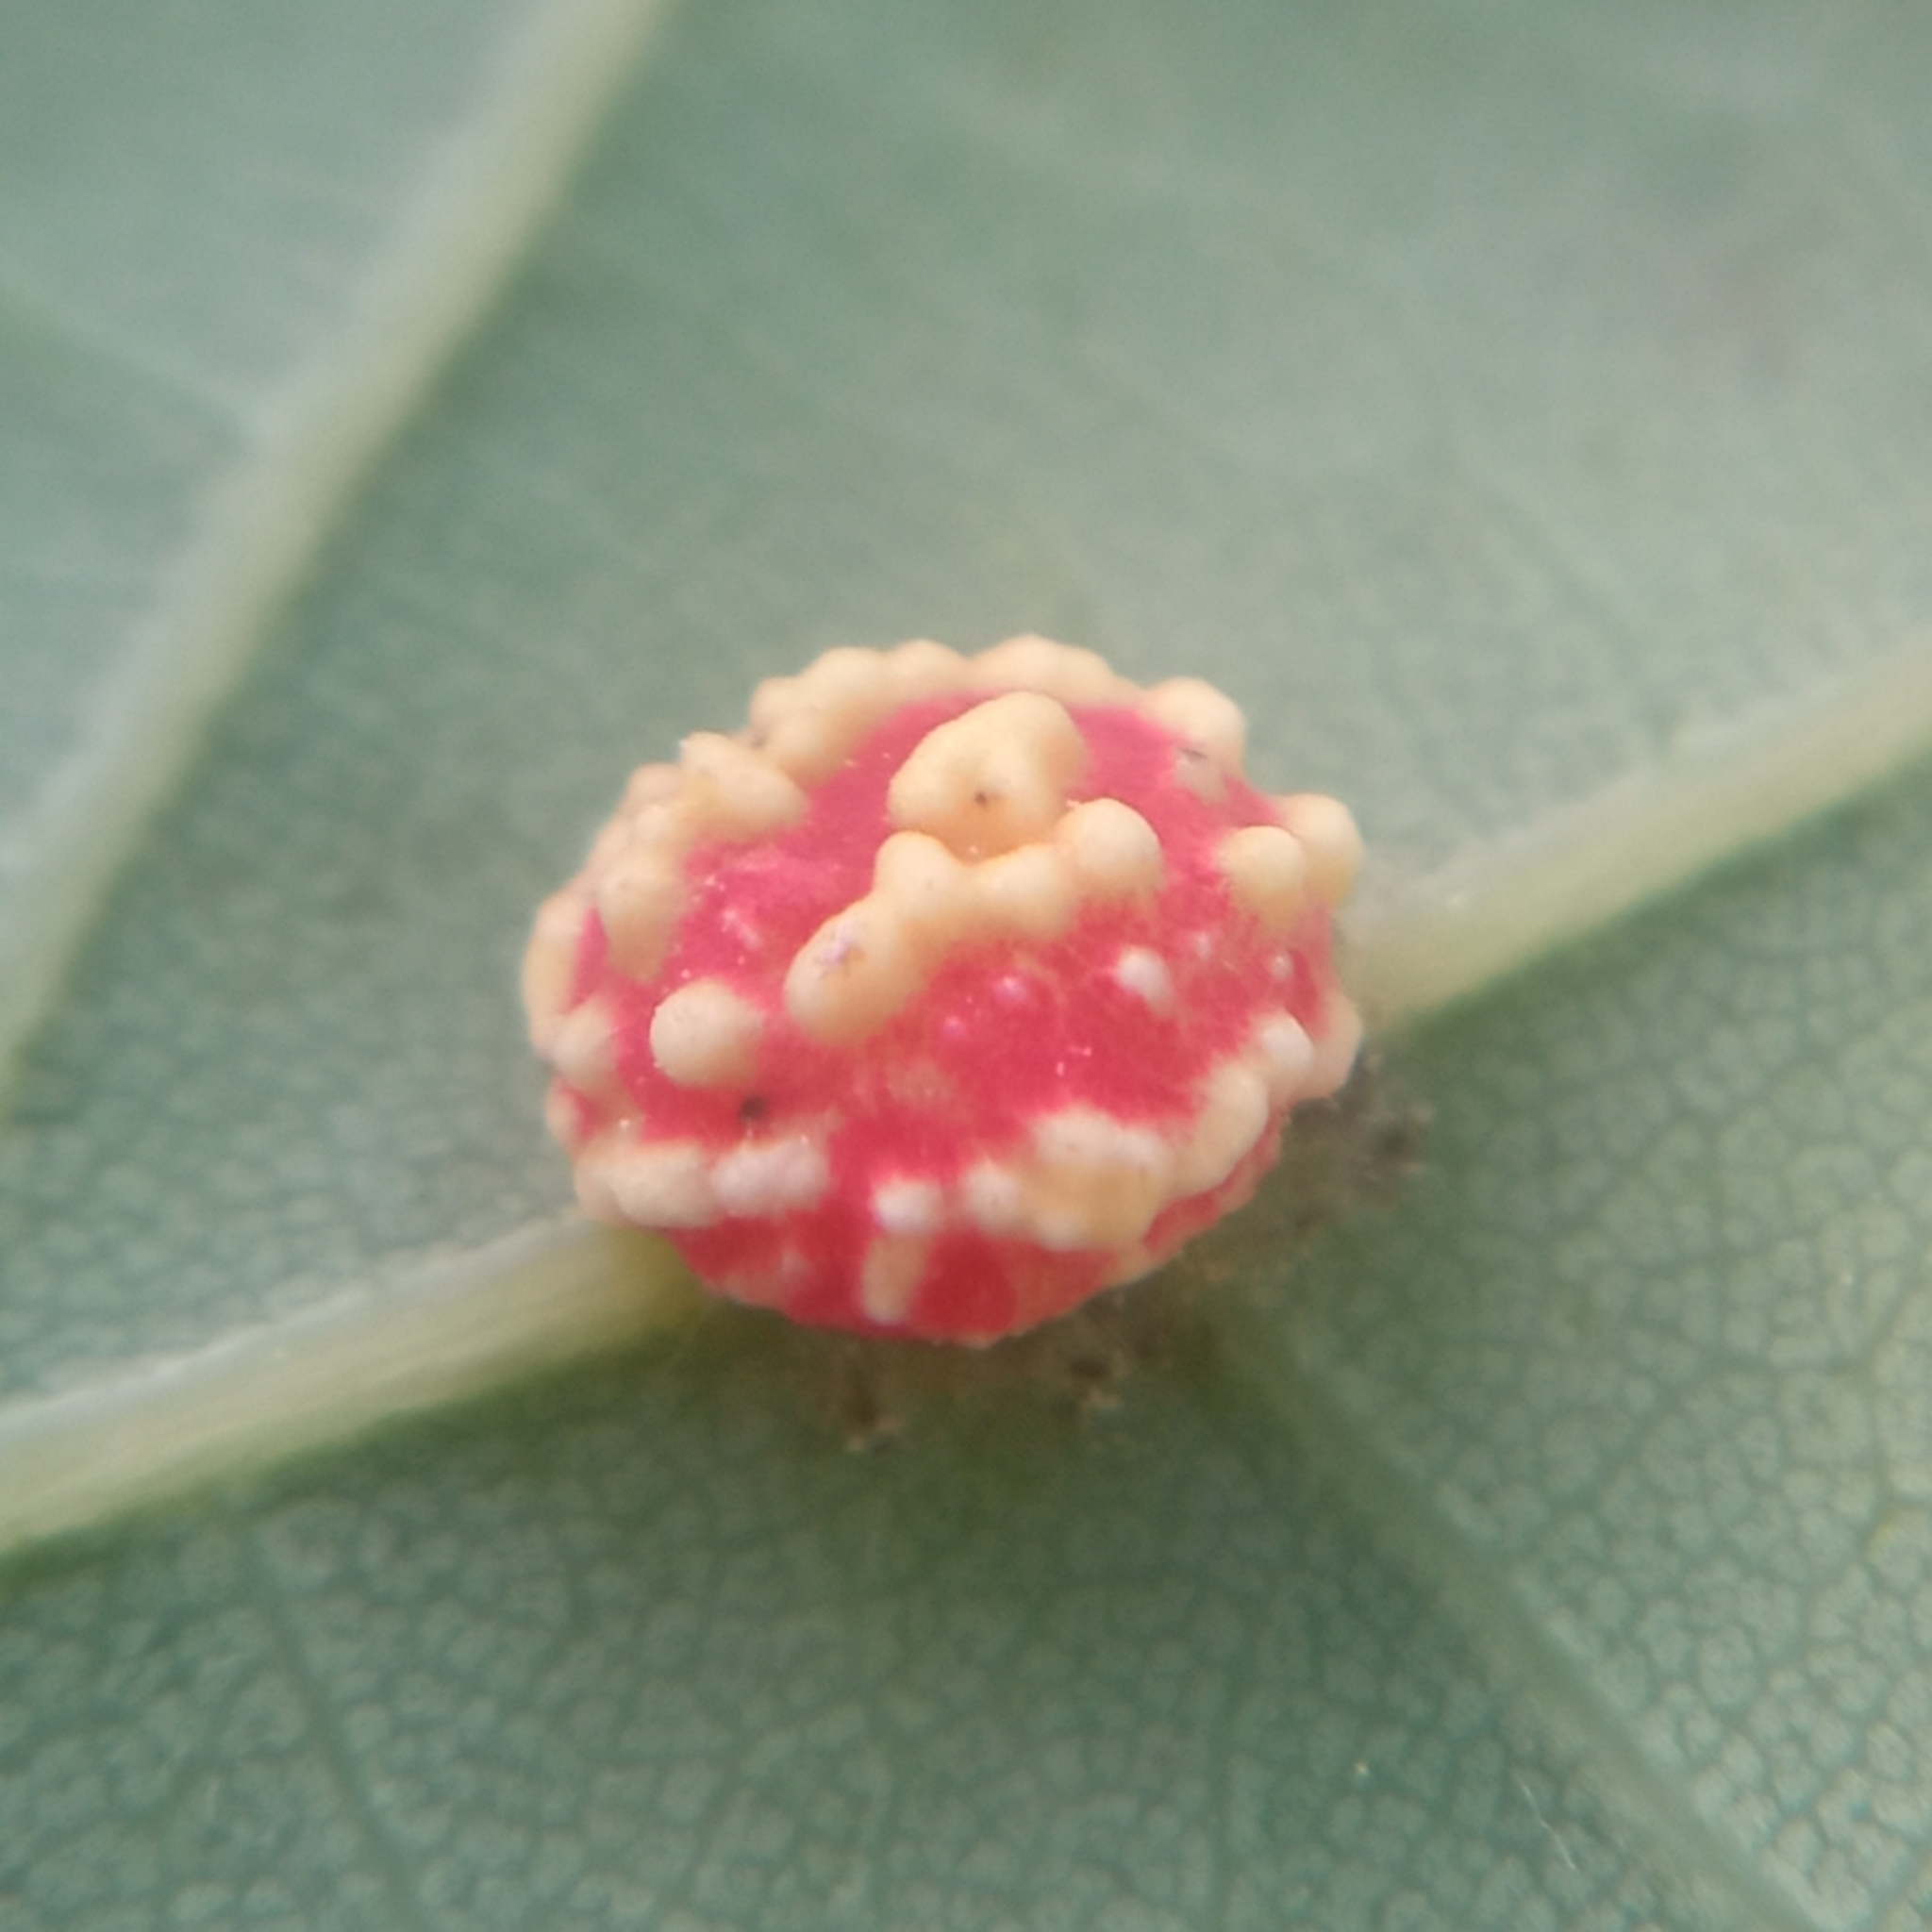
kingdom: Animalia
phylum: Arthropoda
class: Insecta
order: Hymenoptera
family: Cynipidae
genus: Cynips
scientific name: Cynips longiventris
